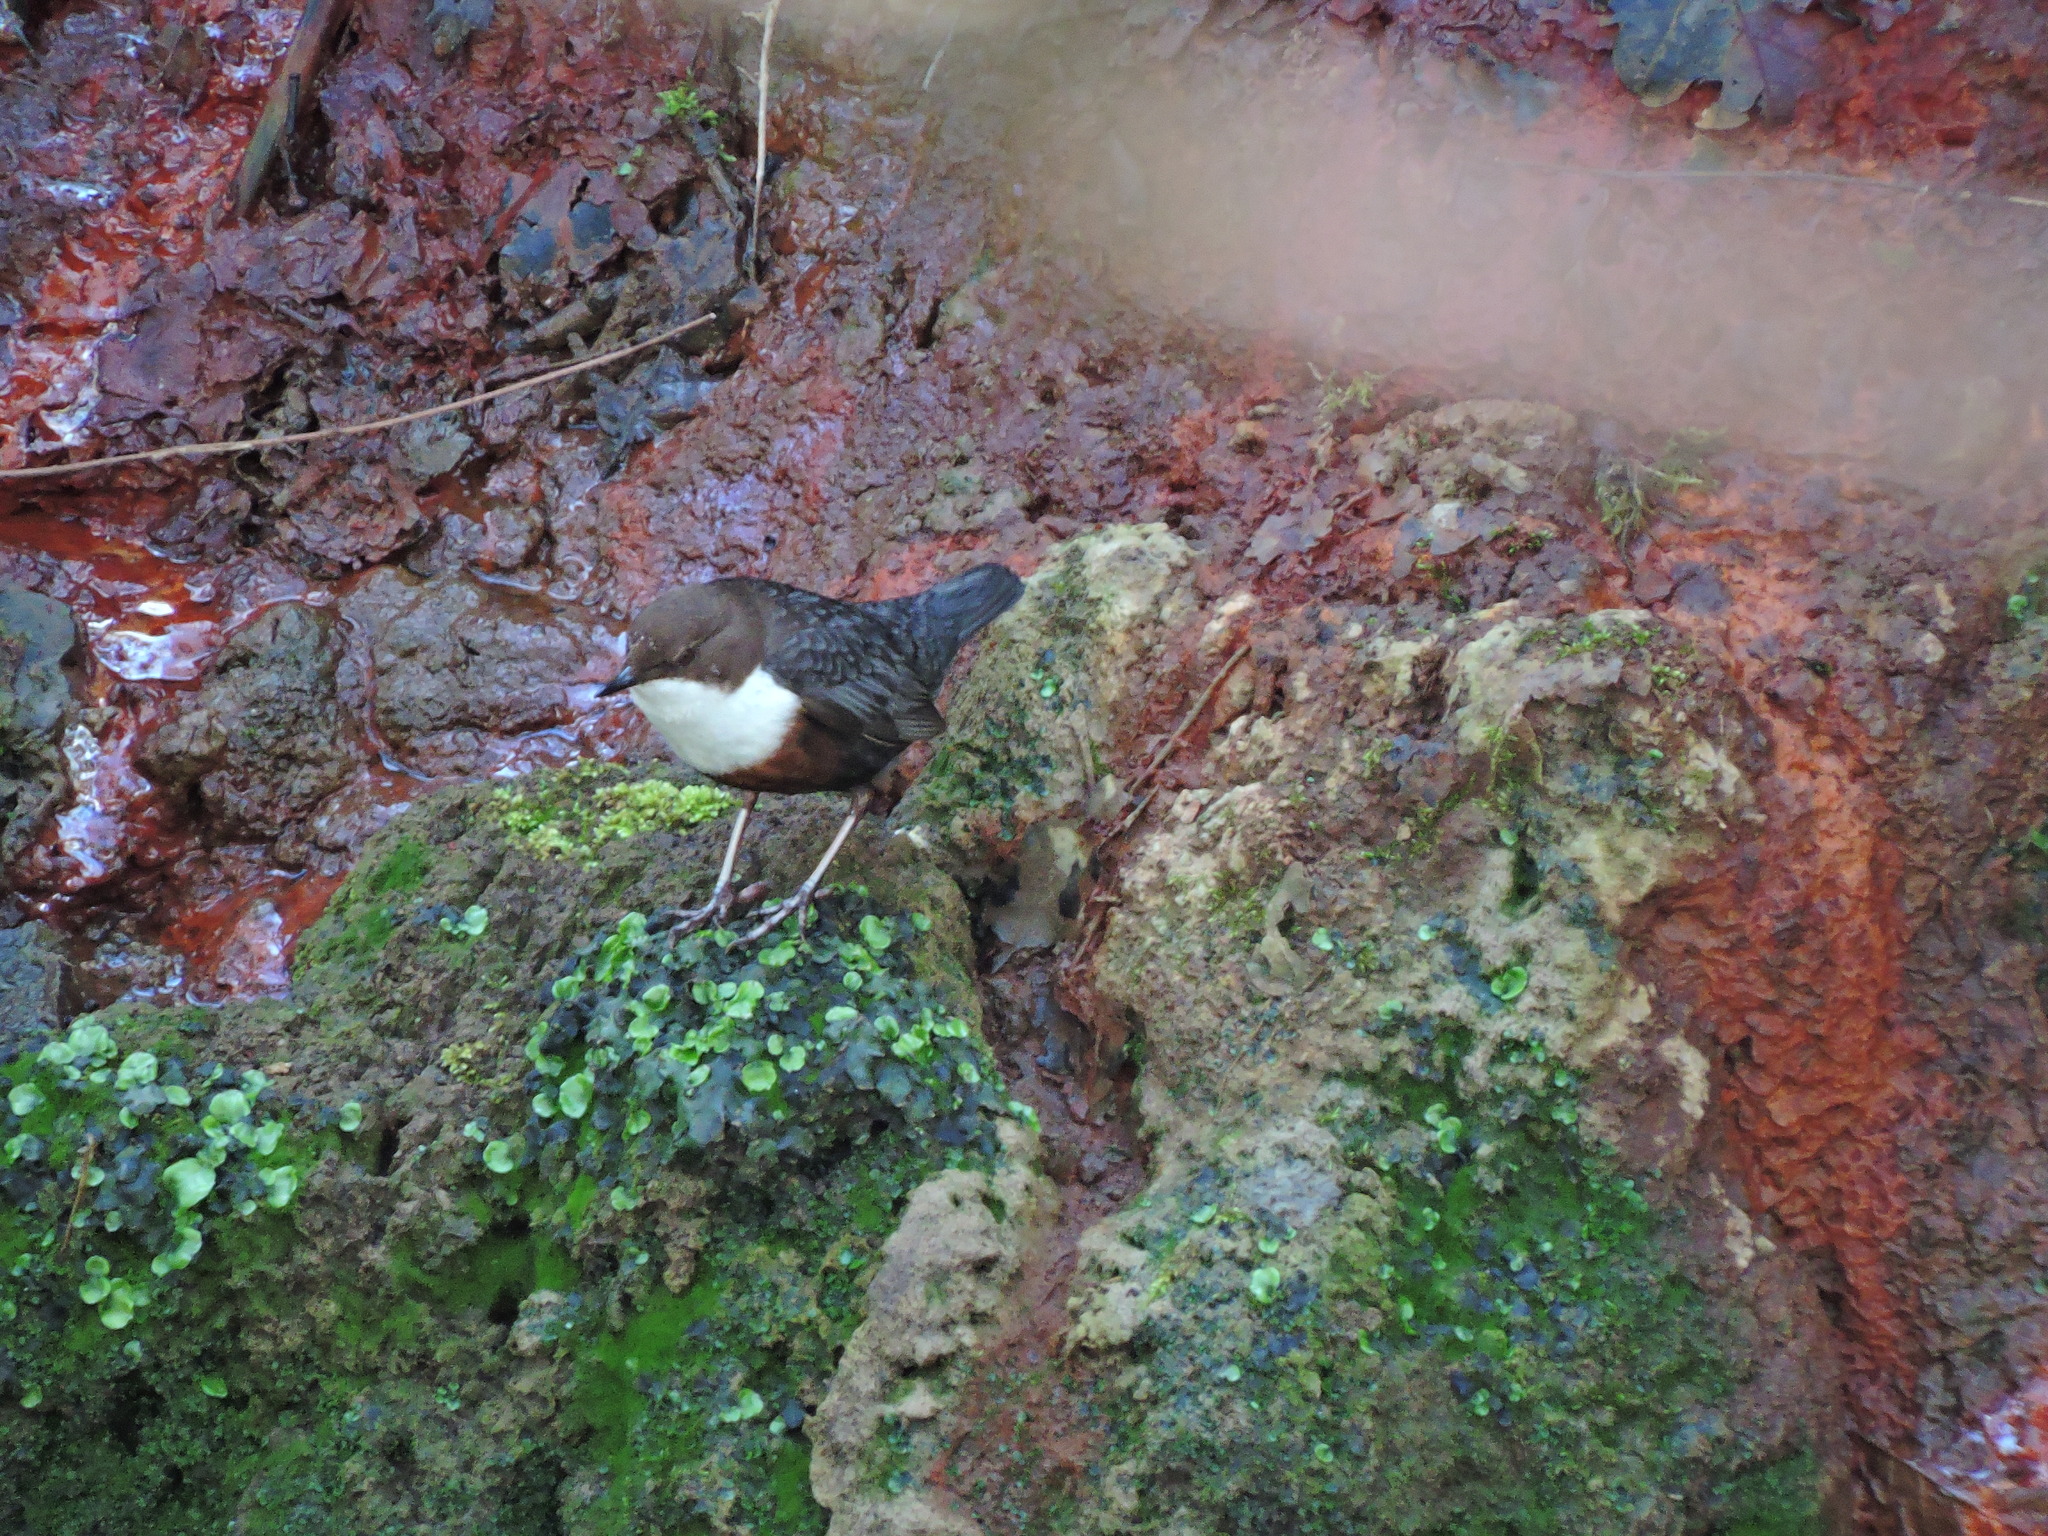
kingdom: Animalia
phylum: Chordata
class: Aves
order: Passeriformes
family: Cinclidae
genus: Cinclus
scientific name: Cinclus cinclus
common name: White-throated dipper
